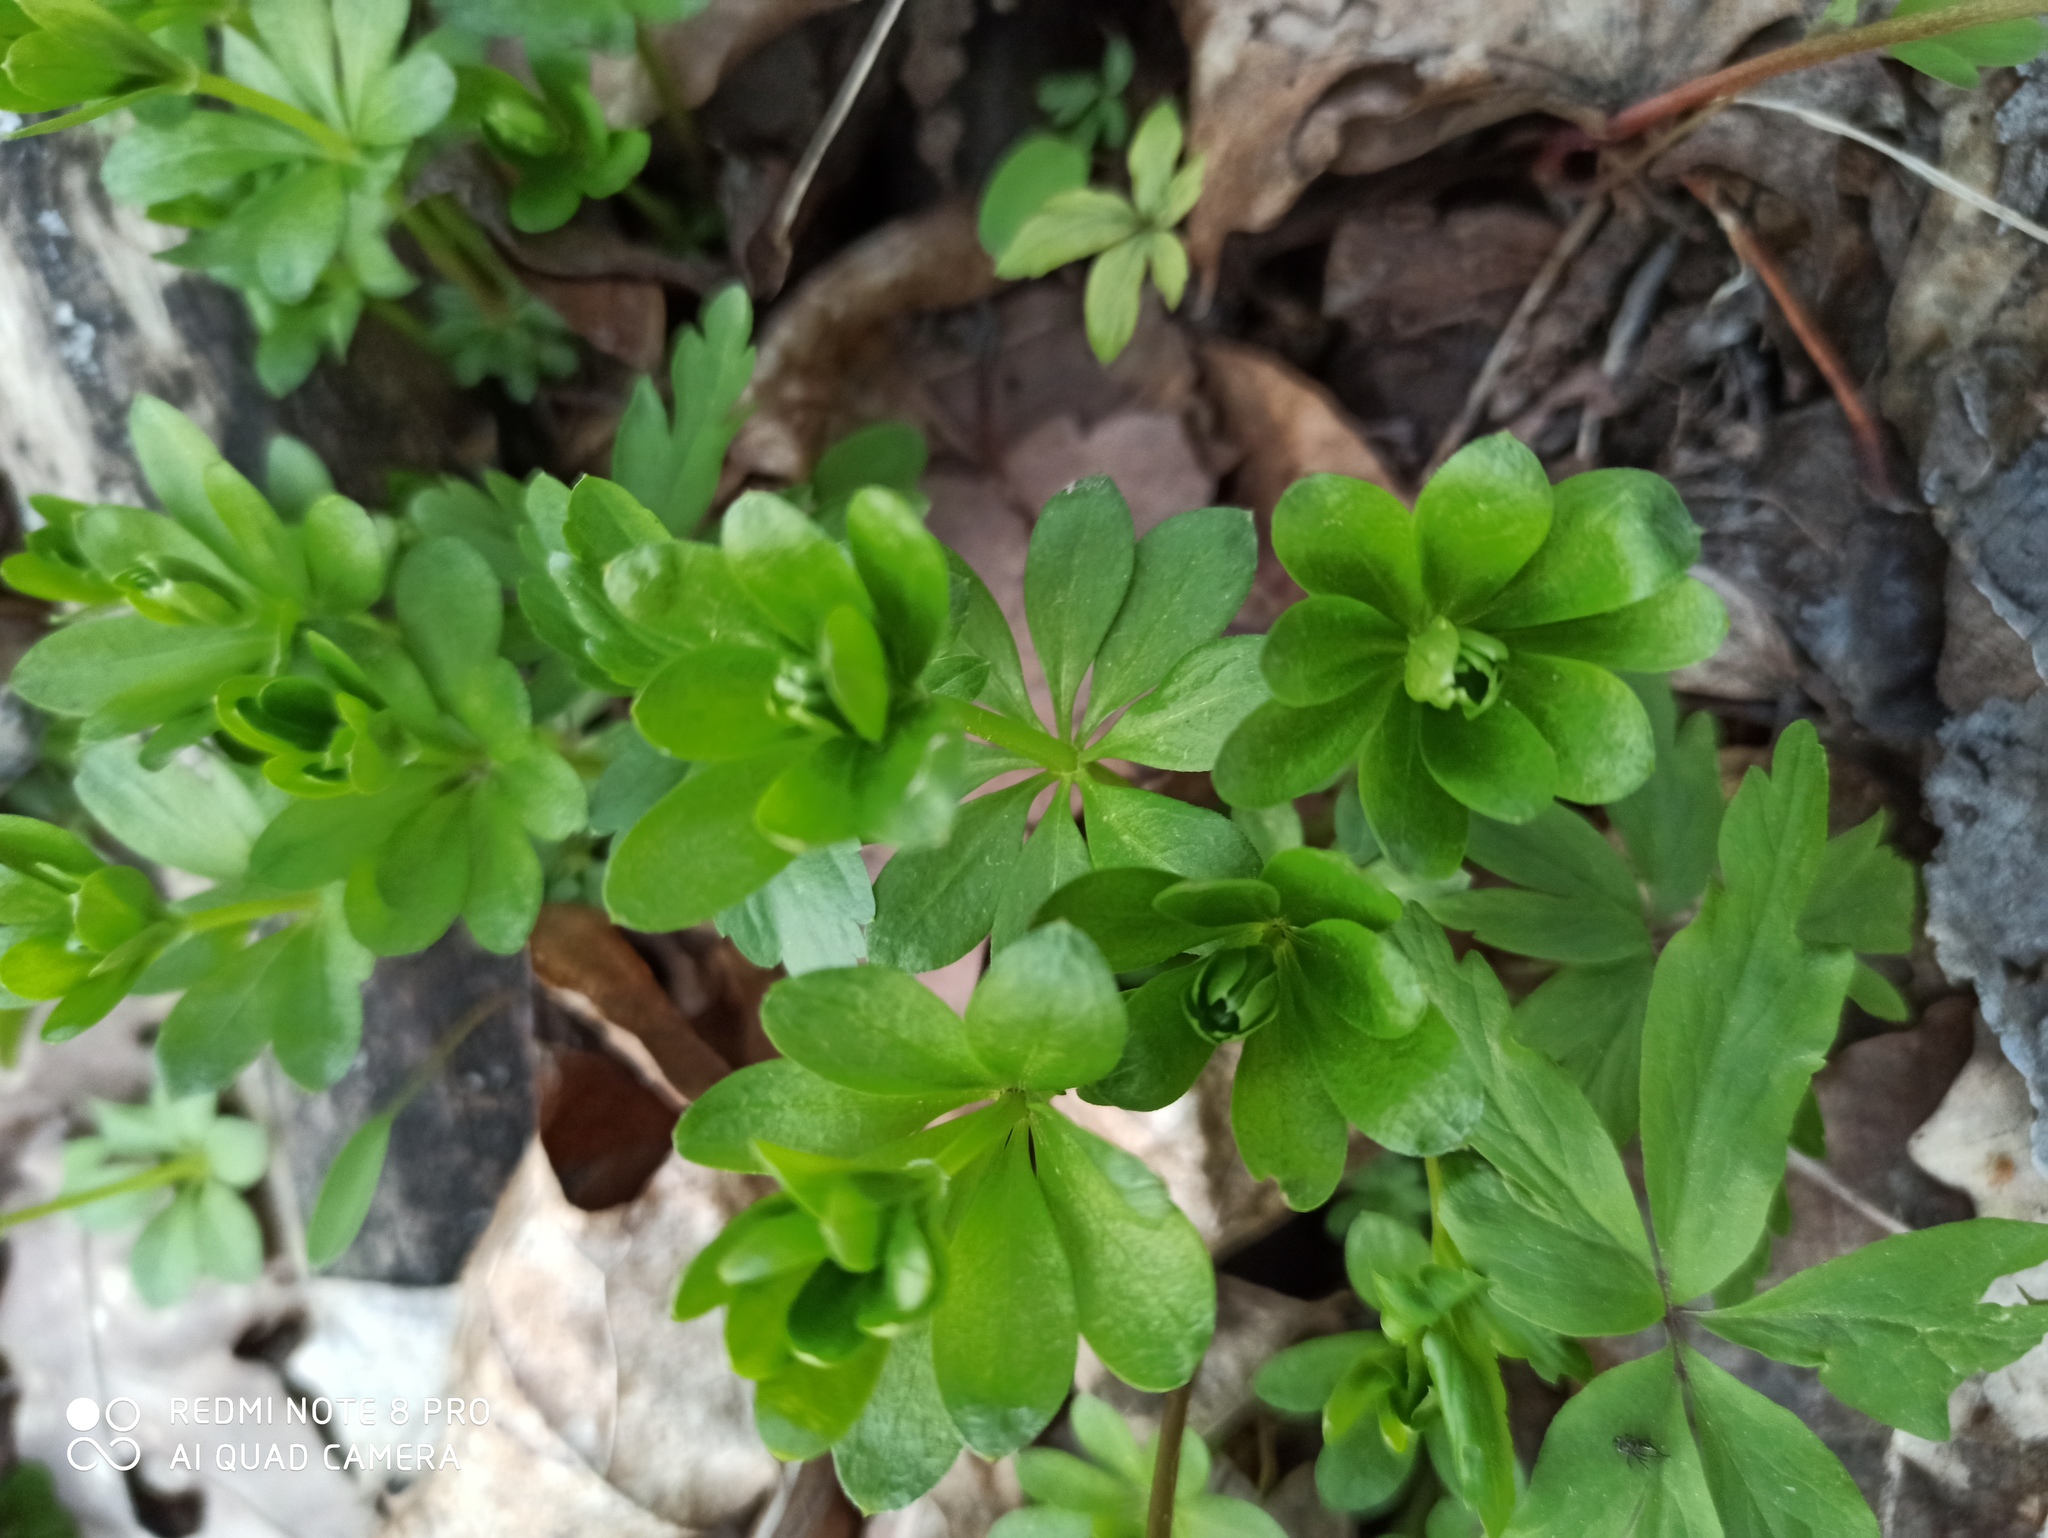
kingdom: Plantae
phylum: Tracheophyta
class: Magnoliopsida
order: Gentianales
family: Rubiaceae
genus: Galium
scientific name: Galium odoratum
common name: Sweet woodruff
